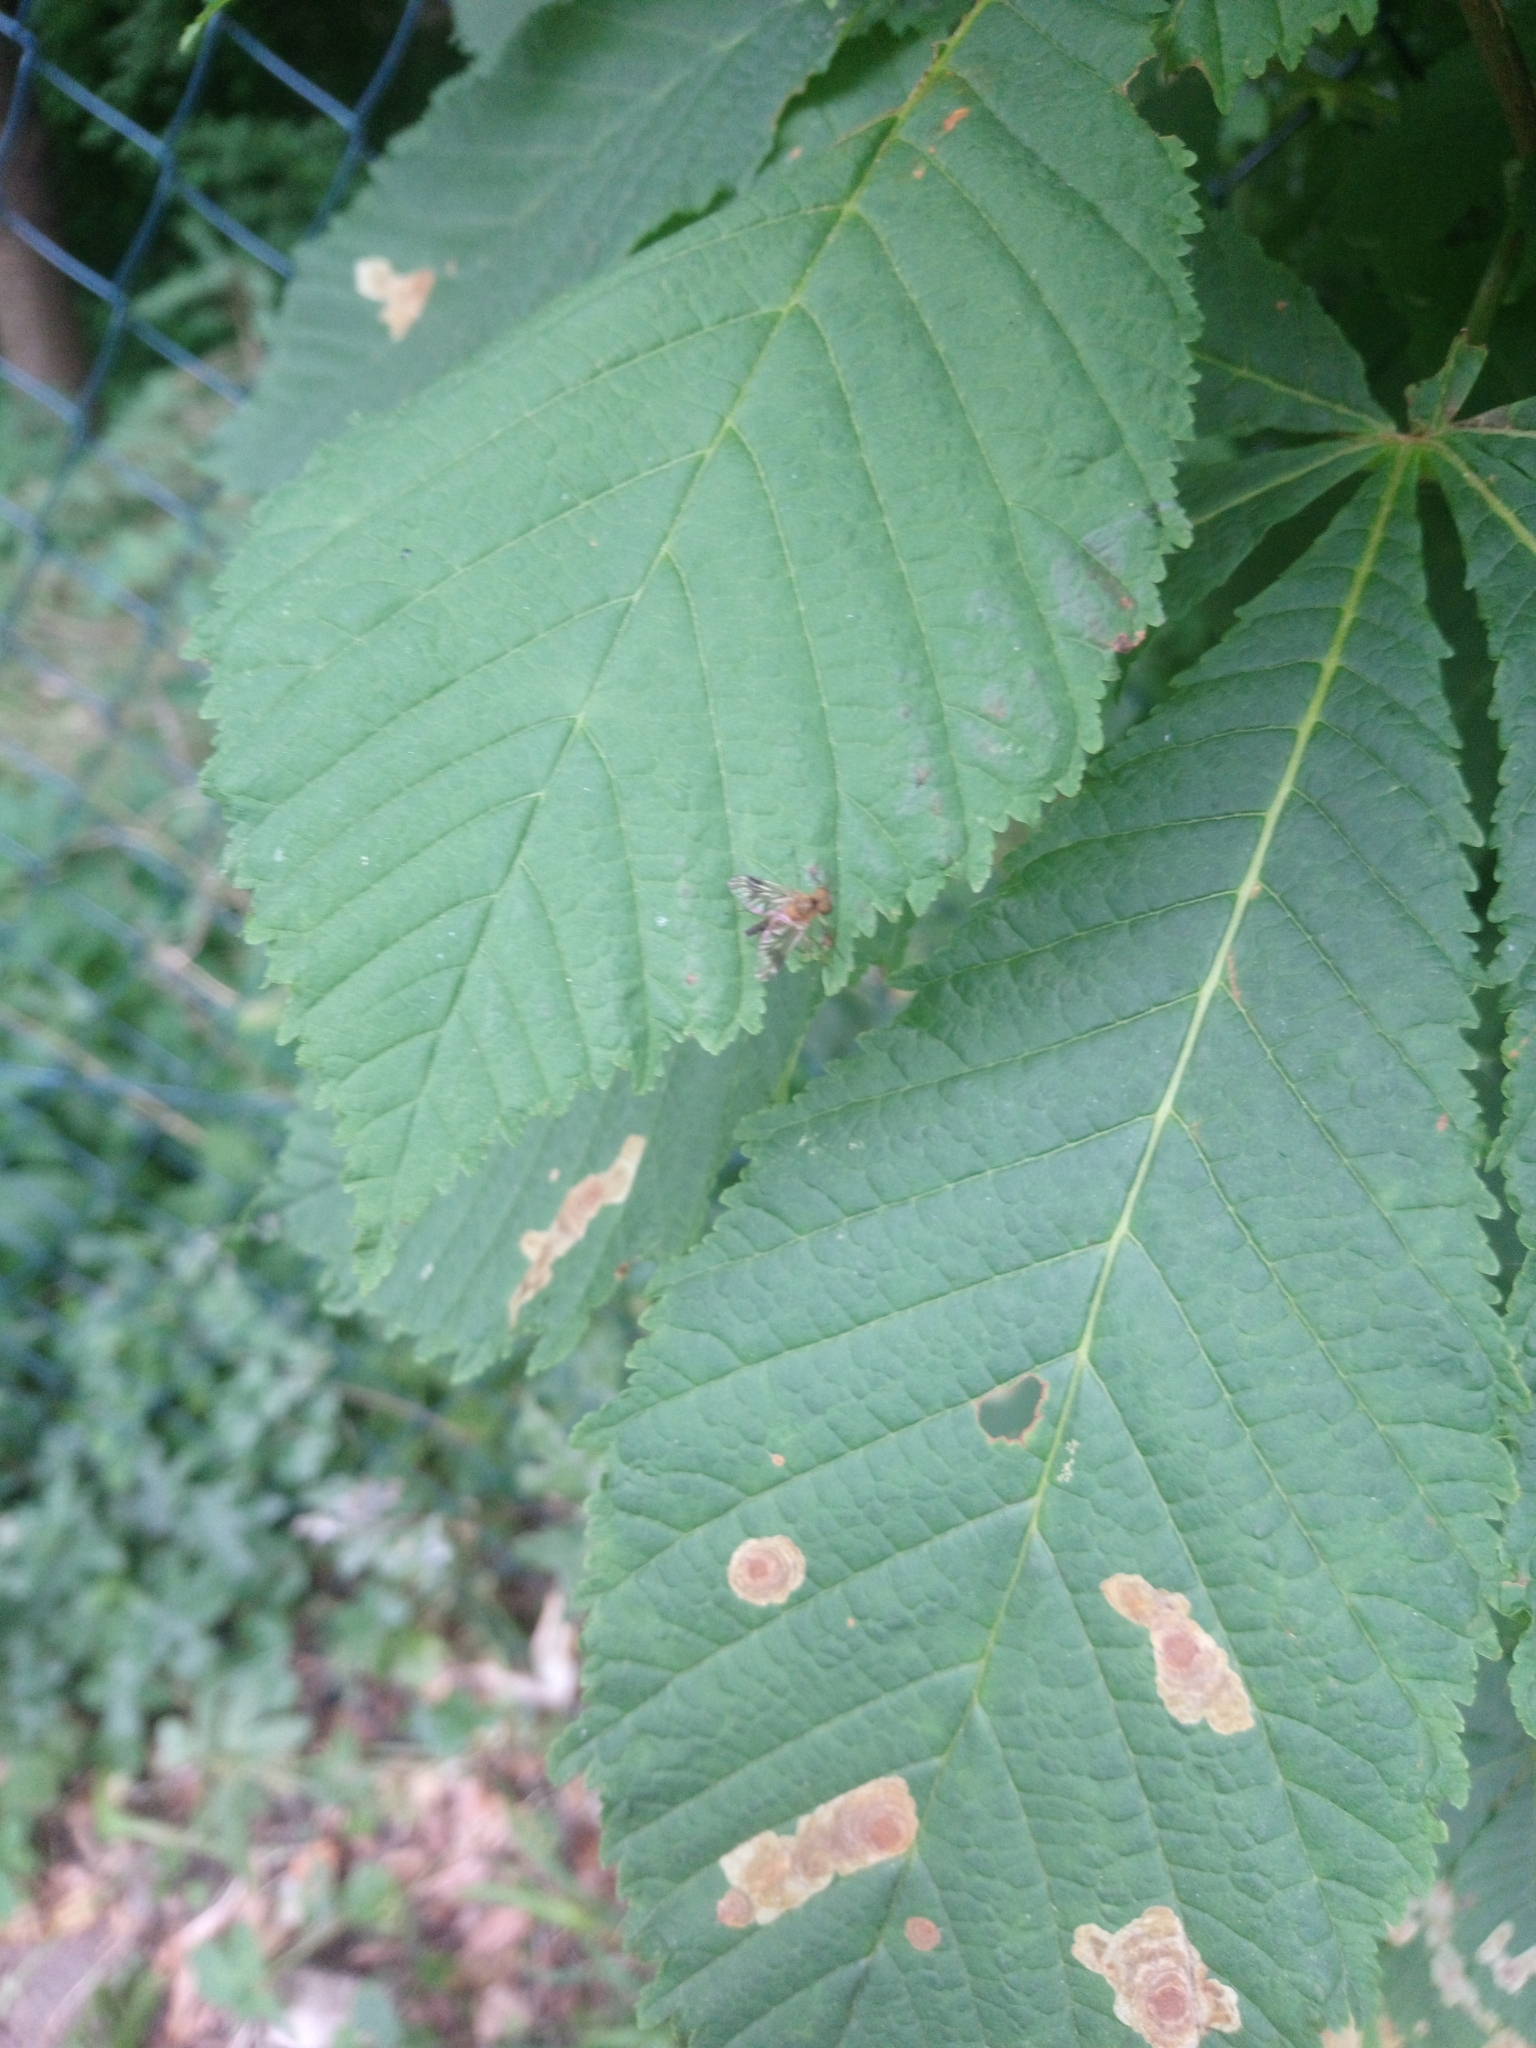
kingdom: Animalia
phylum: Arthropoda
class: Insecta
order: Lepidoptera
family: Gracillariidae
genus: Cameraria
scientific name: Cameraria ohridella
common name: Horse-chestnut leaf-miner
